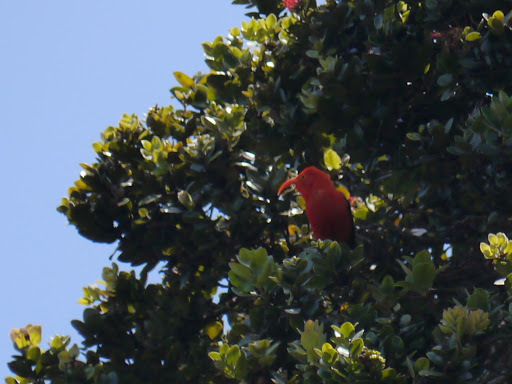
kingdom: Animalia
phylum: Chordata
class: Aves
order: Passeriformes
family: Fringillidae
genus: Vestiaria
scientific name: Vestiaria coccinea
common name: Iiwi
